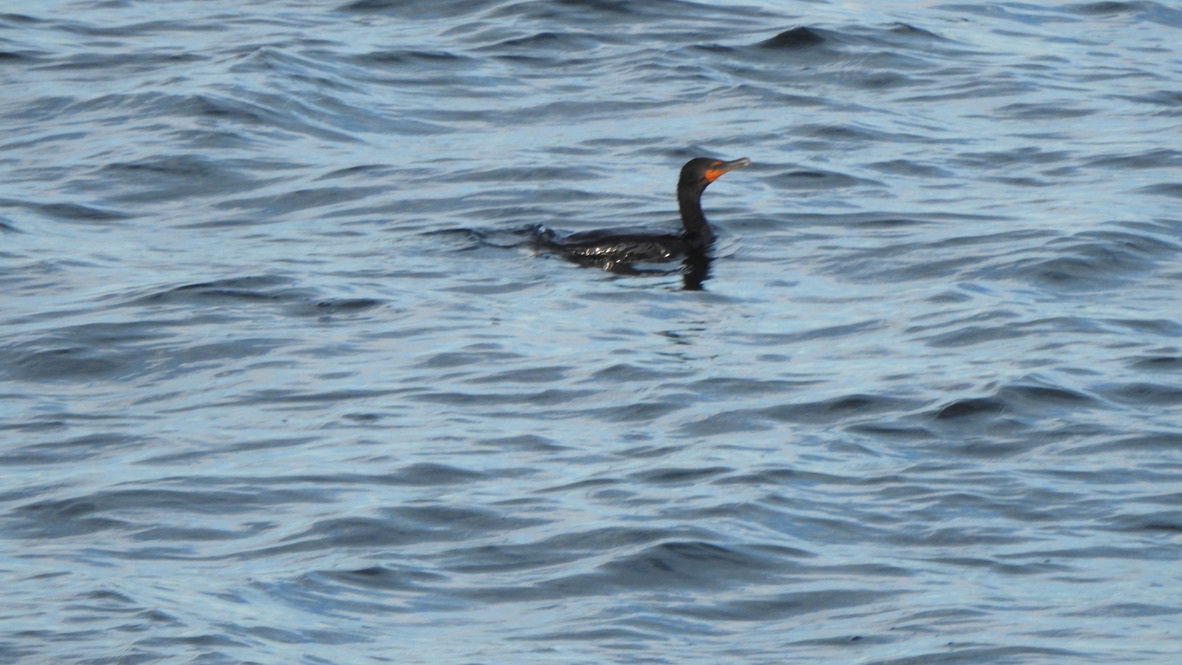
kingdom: Animalia
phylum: Chordata
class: Aves
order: Suliformes
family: Phalacrocoracidae
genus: Phalacrocorax
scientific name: Phalacrocorax auritus
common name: Double-crested cormorant
